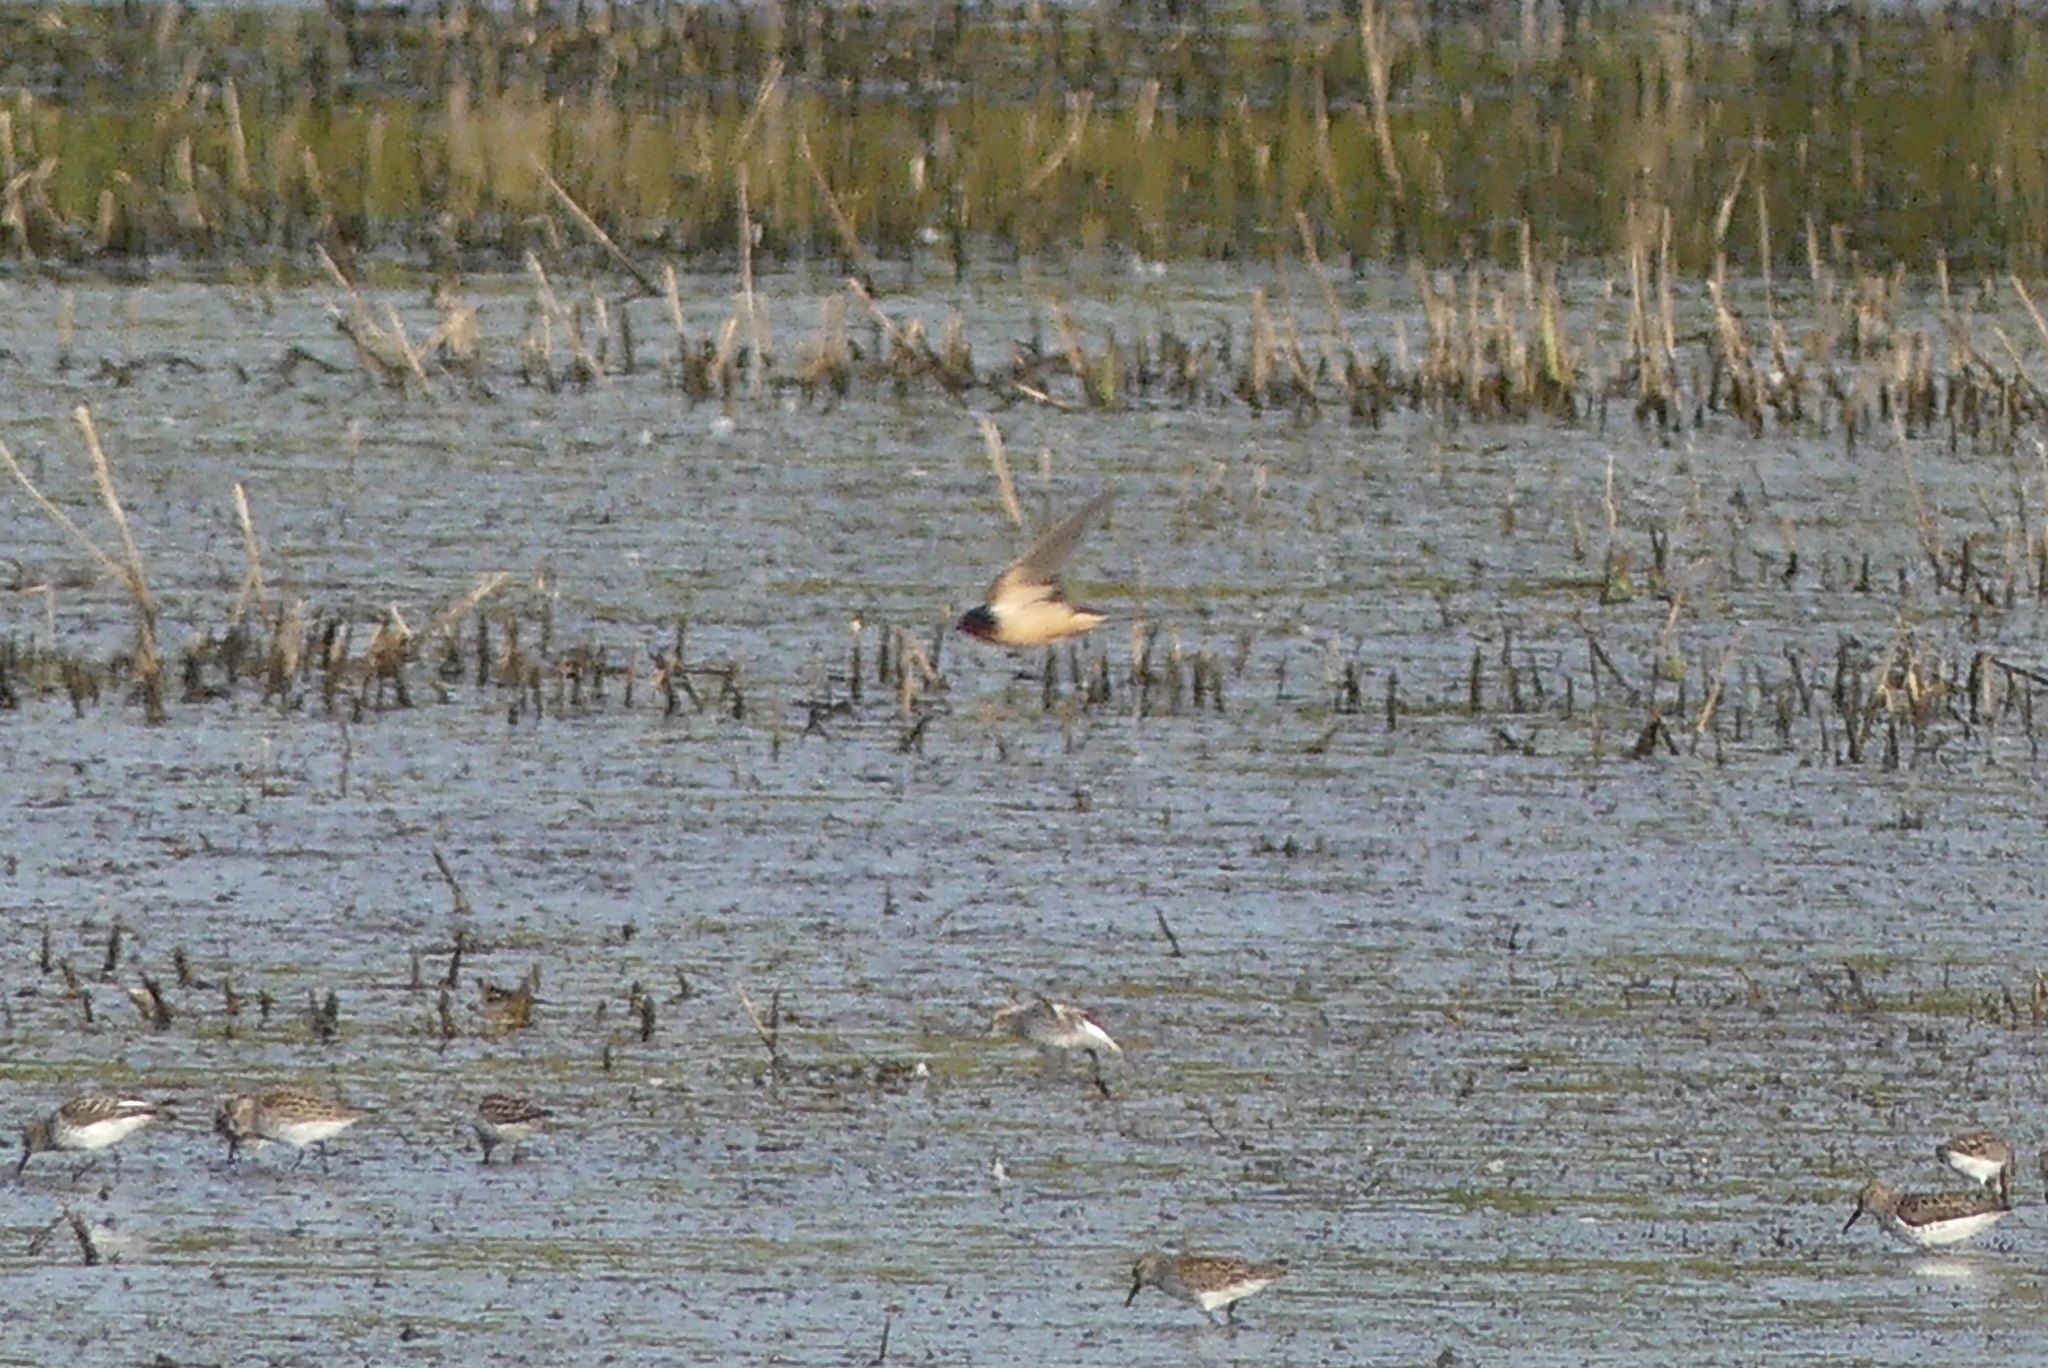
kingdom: Animalia
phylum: Chordata
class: Aves
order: Passeriformes
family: Hirundinidae
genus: Hirundo
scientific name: Hirundo rustica
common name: Barn swallow
